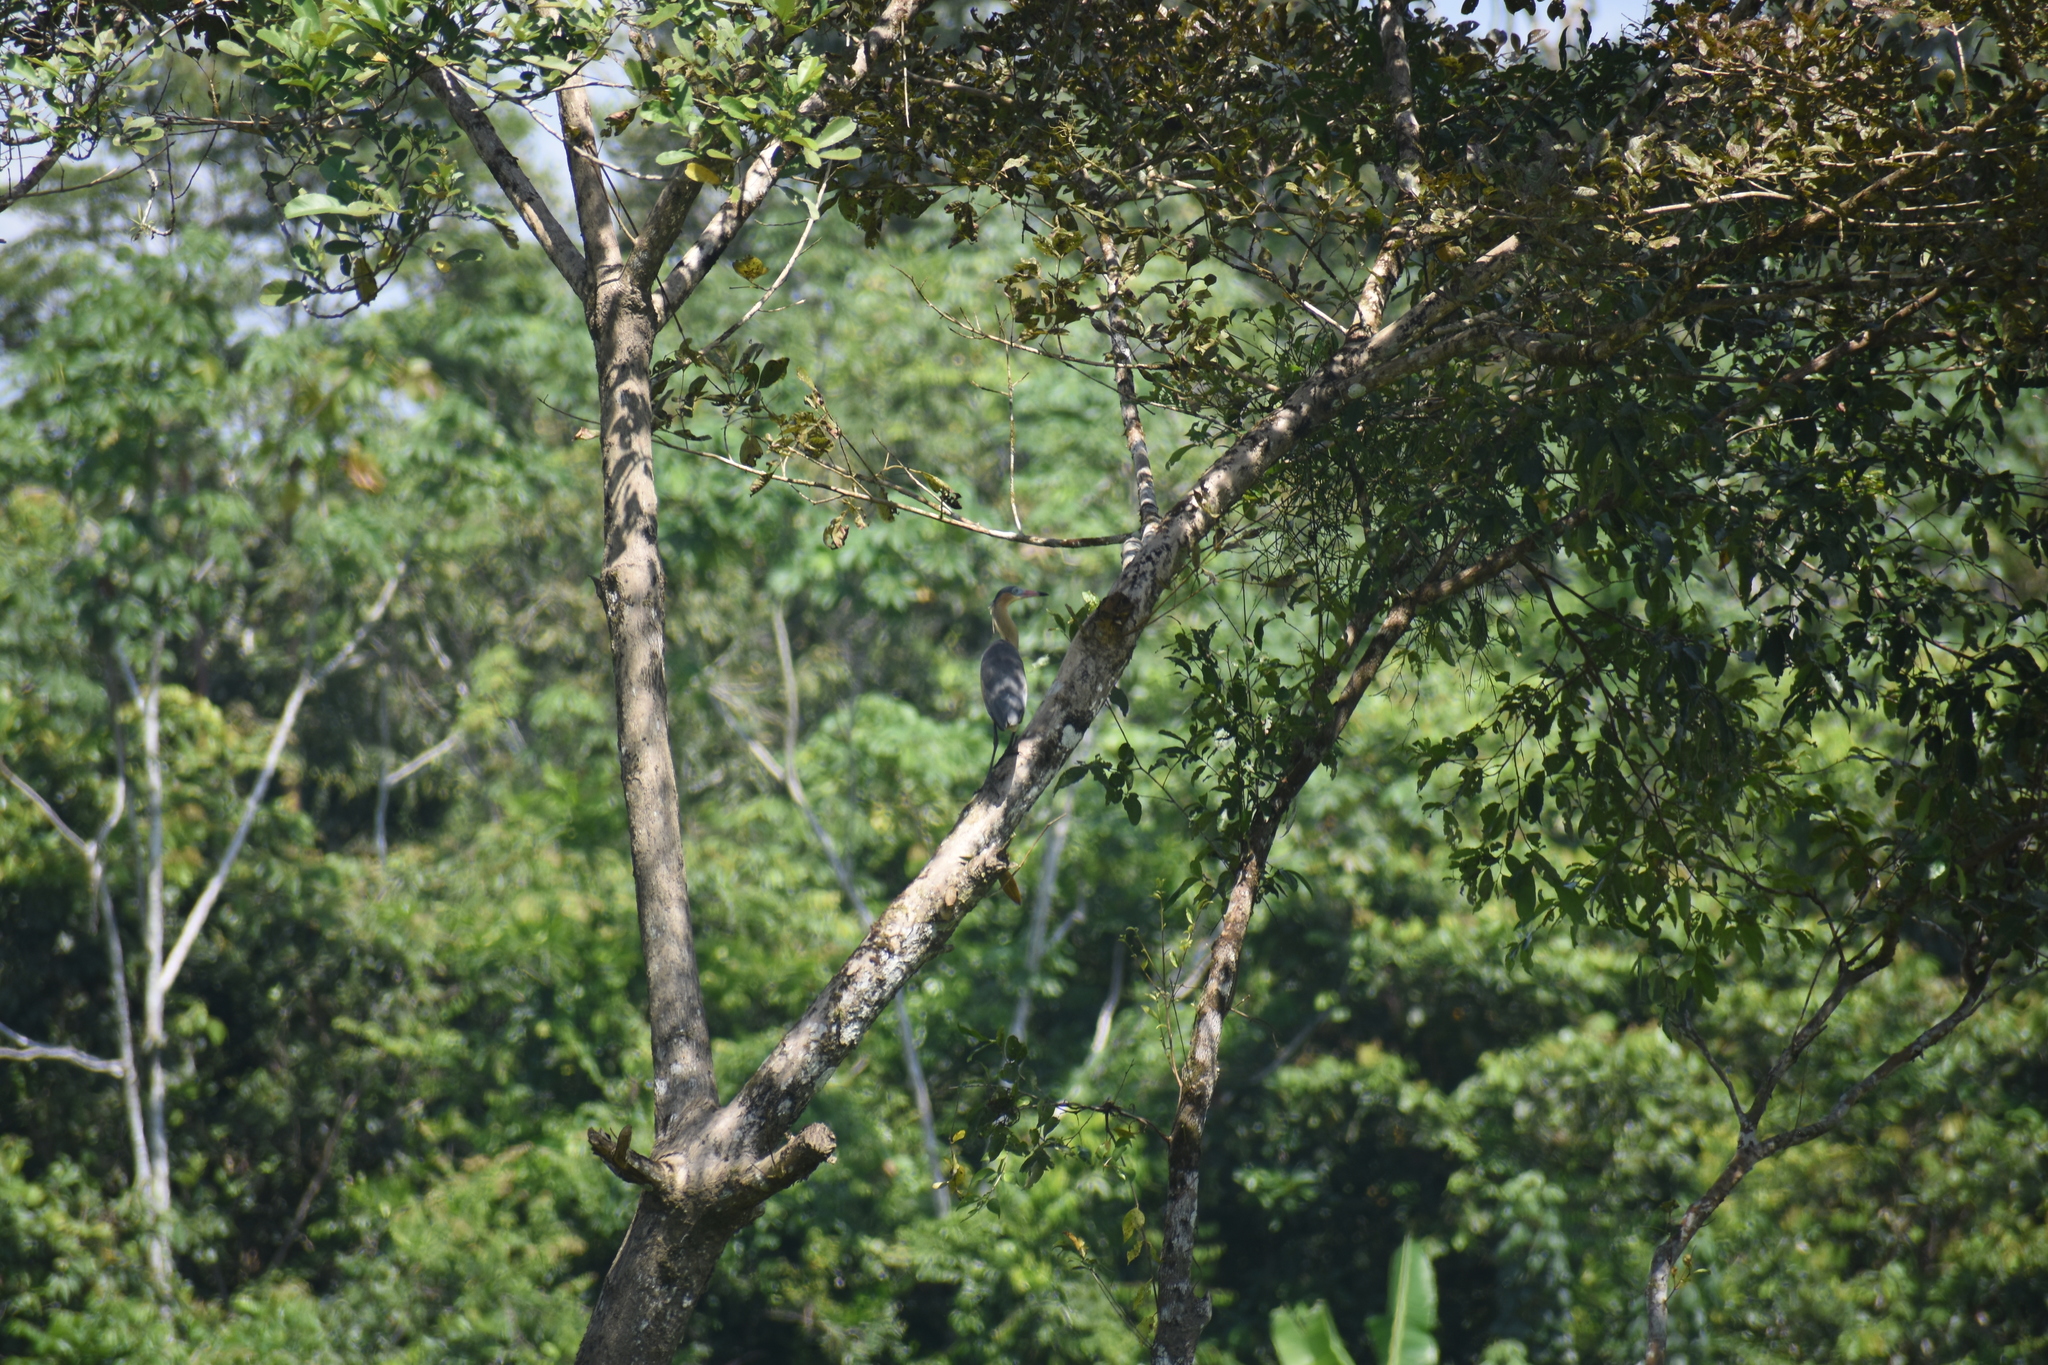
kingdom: Animalia
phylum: Chordata
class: Aves
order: Pelecaniformes
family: Ardeidae
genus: Syrigma
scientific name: Syrigma sibilatrix
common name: Whistling heron
